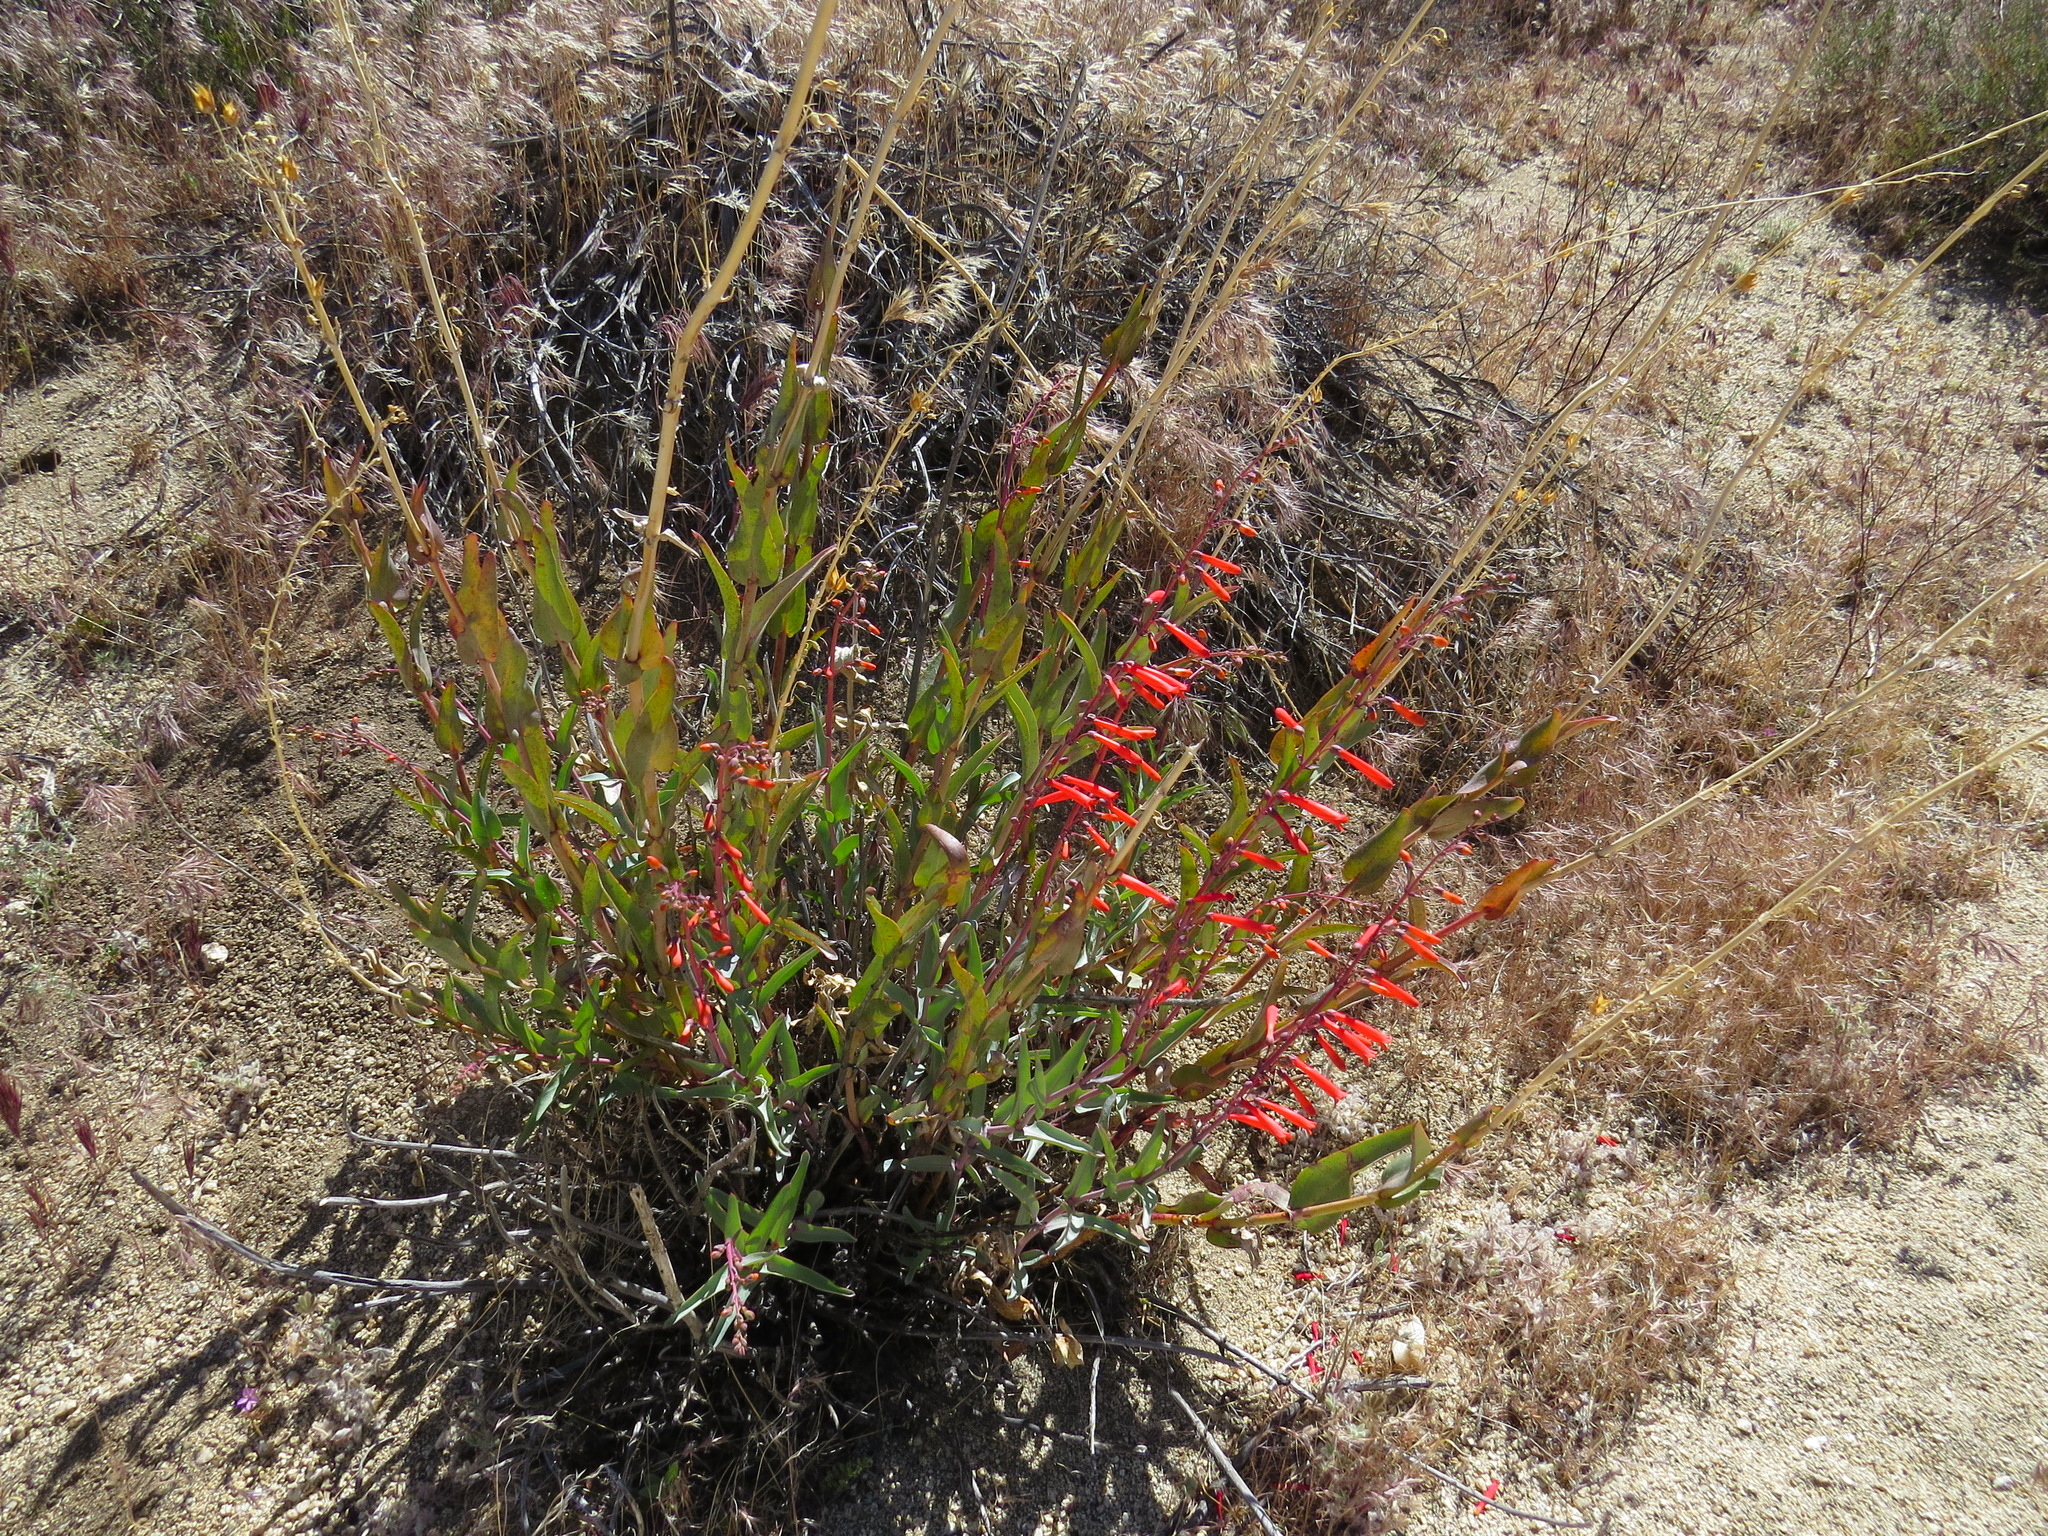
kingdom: Plantae
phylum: Tracheophyta
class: Magnoliopsida
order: Lamiales
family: Plantaginaceae
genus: Penstemon
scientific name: Penstemon centranthifolius
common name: Scarlet bugler
